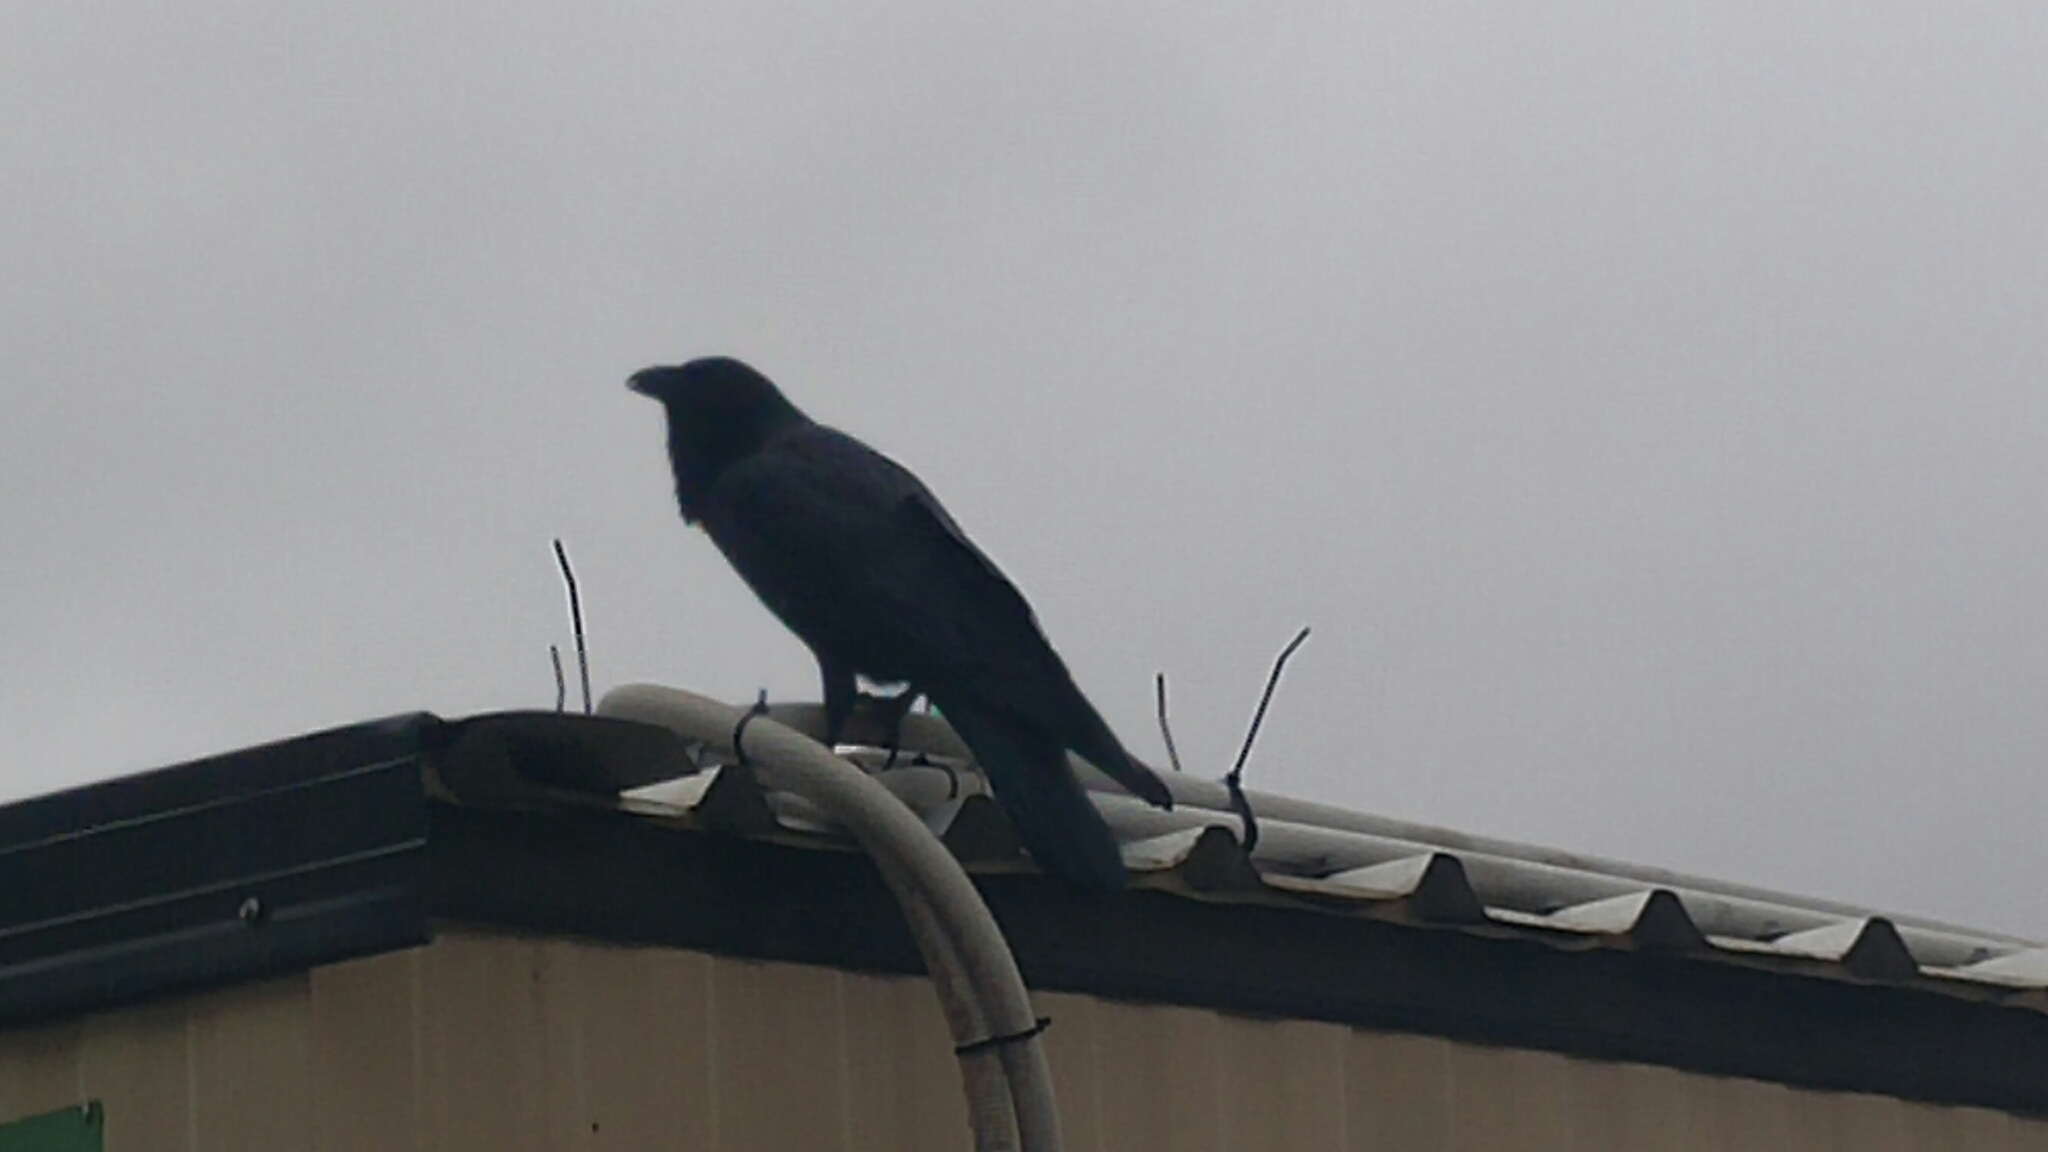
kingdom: Animalia
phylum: Chordata
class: Aves
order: Passeriformes
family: Corvidae
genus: Corvus
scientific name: Corvus coronoides
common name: Australian raven
